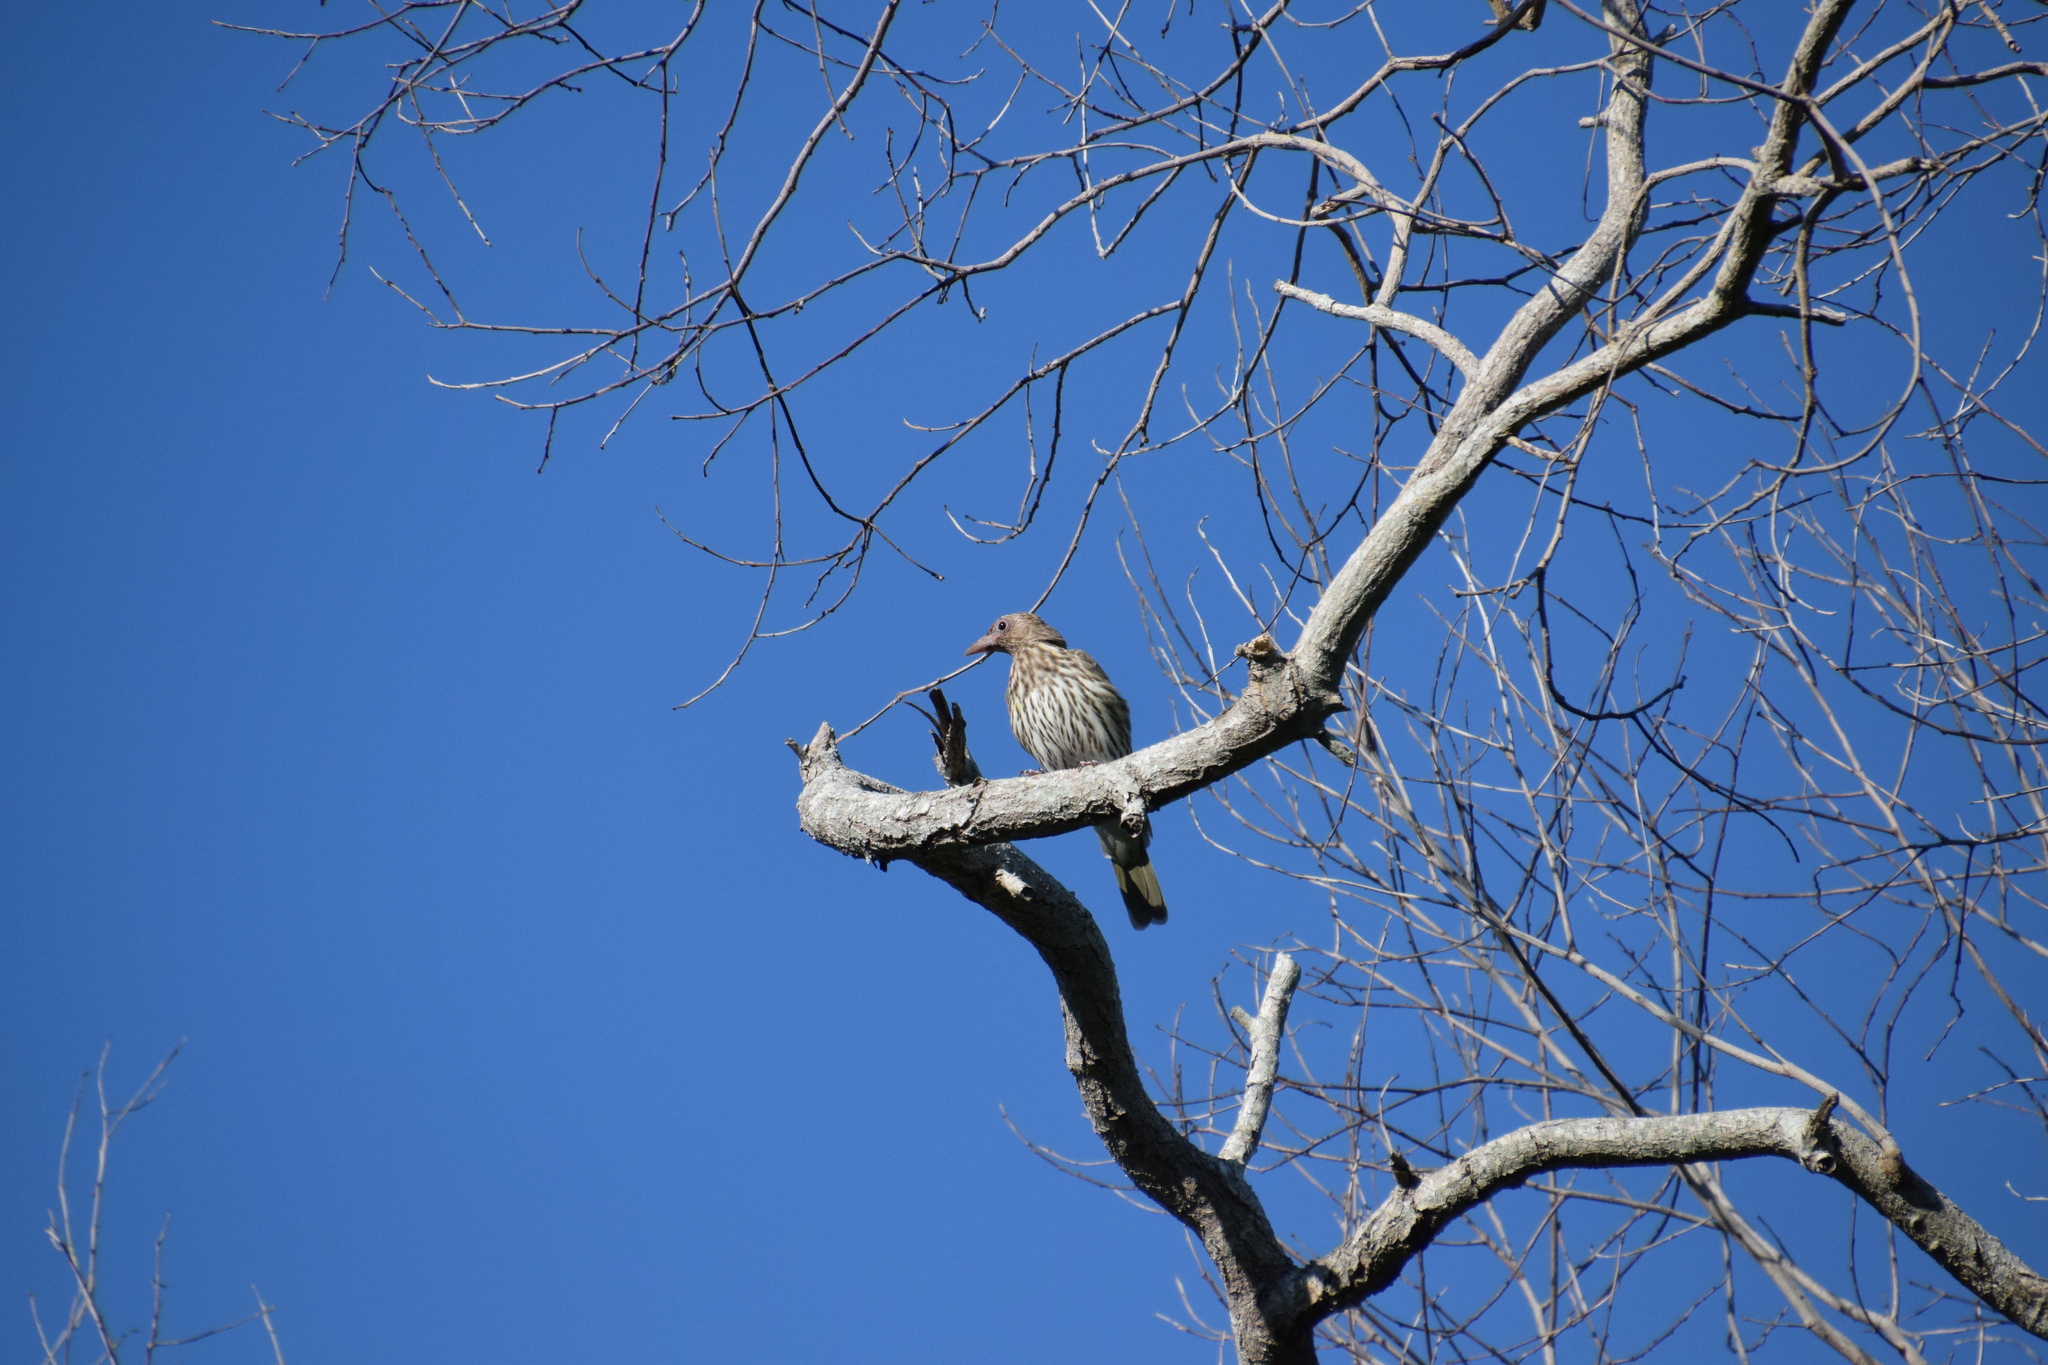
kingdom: Animalia
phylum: Chordata
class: Aves
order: Passeriformes
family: Oriolidae
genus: Sphecotheres
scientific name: Sphecotheres vieilloti
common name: Australasian figbird
